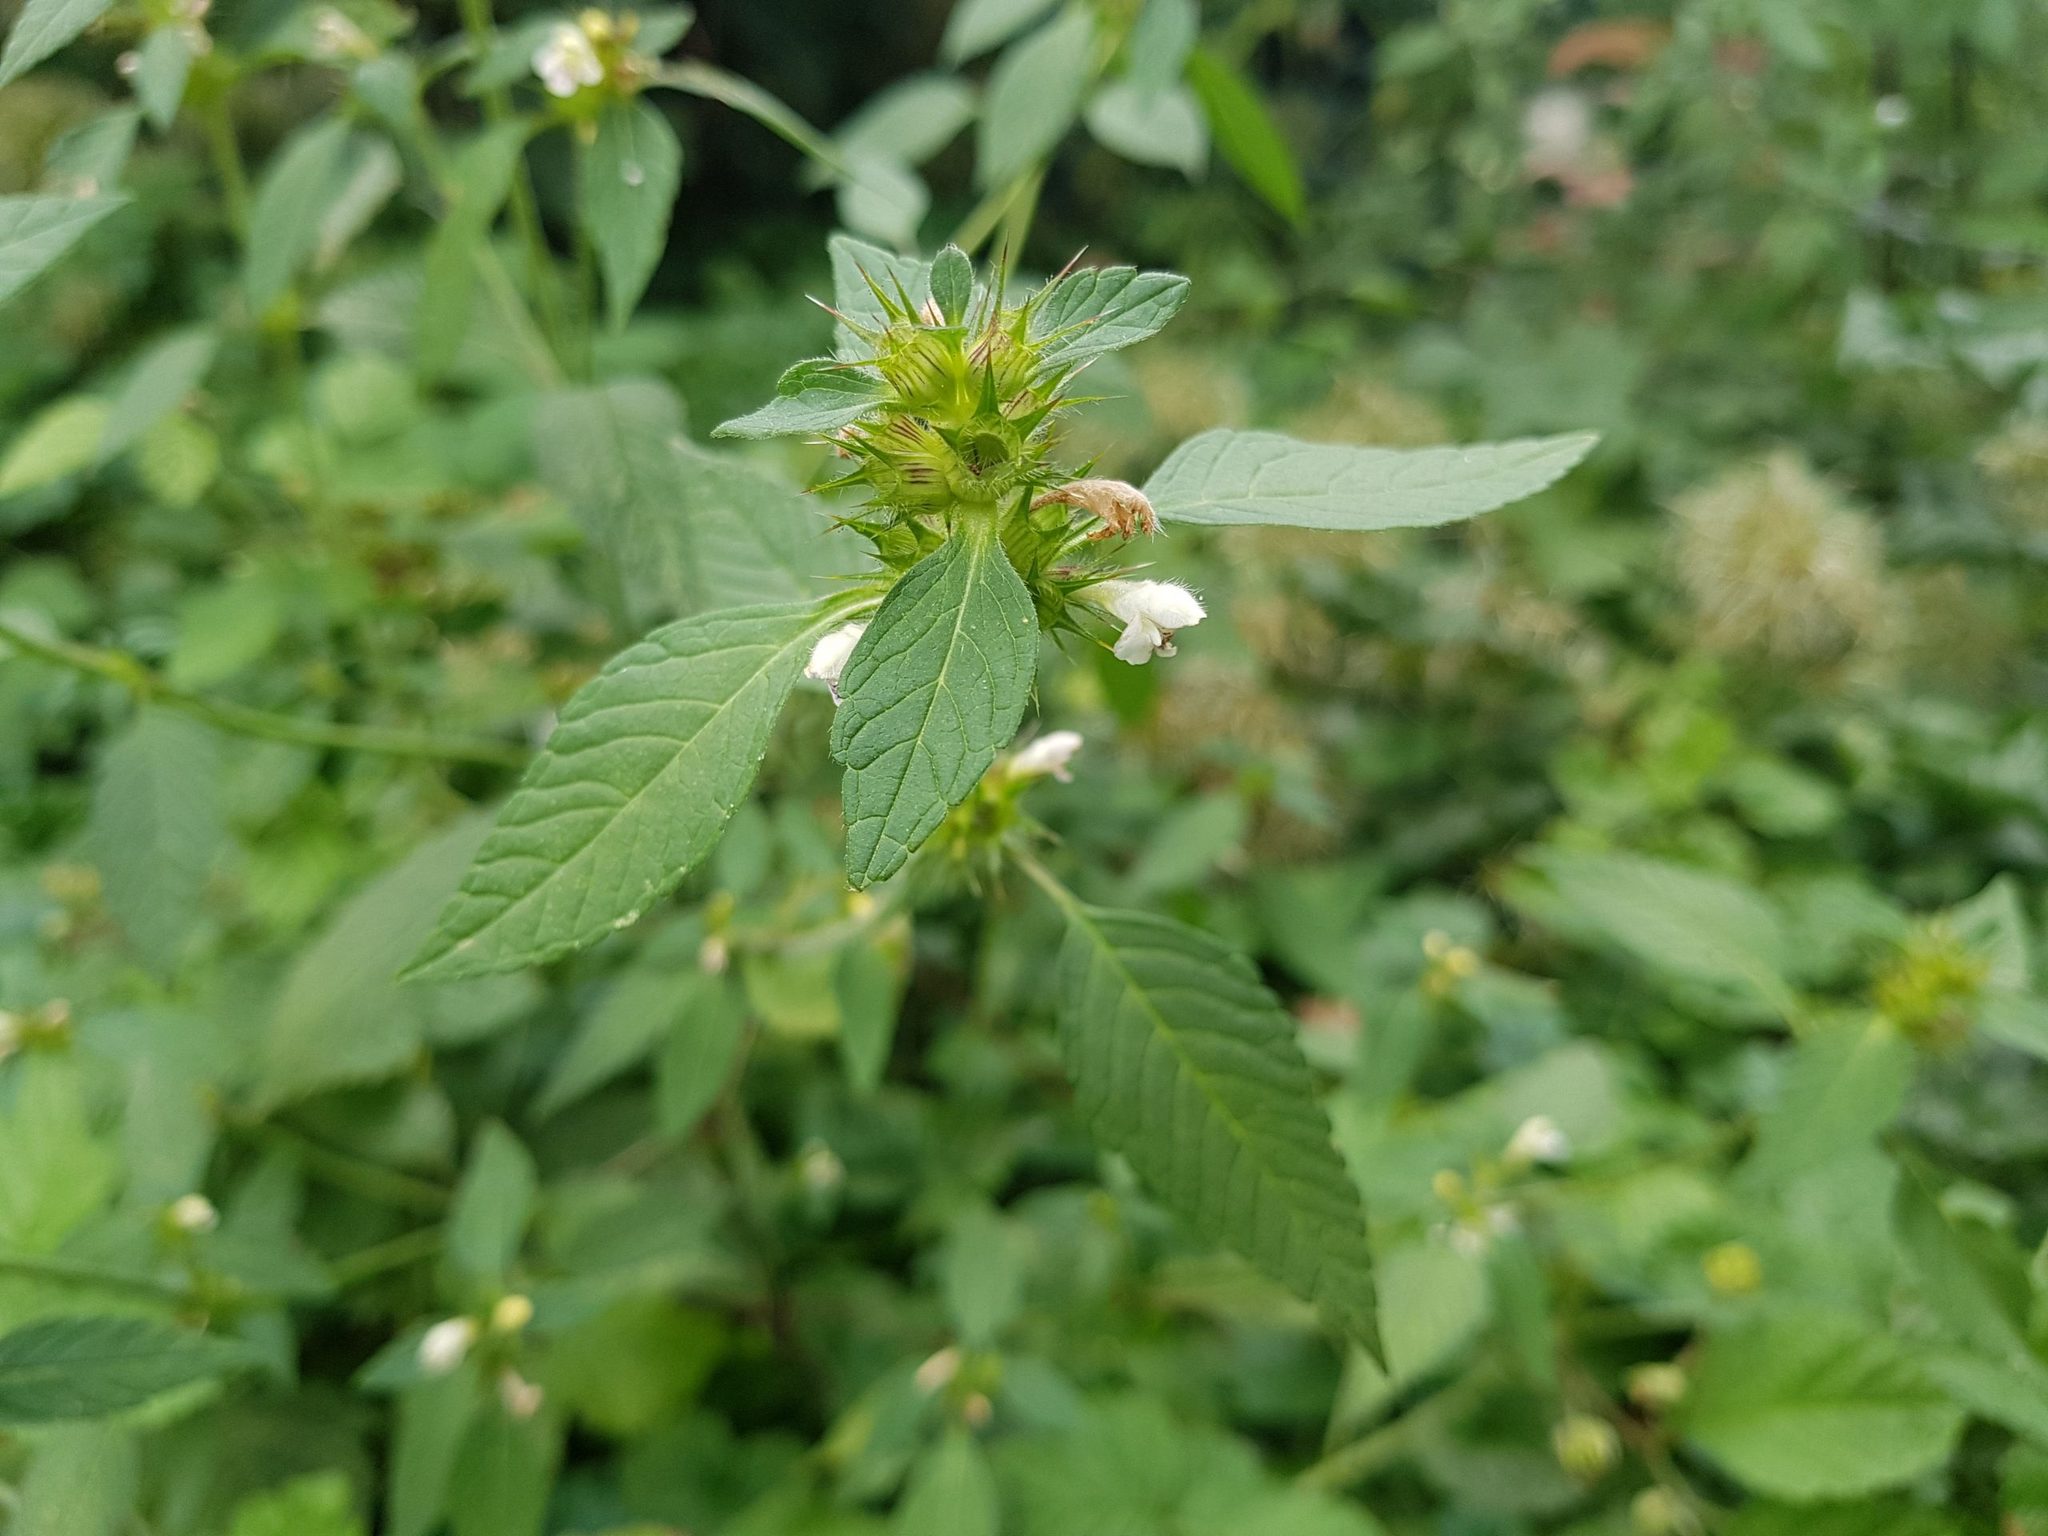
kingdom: Plantae
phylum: Tracheophyta
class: Magnoliopsida
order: Lamiales
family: Lamiaceae
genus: Galeopsis
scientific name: Galeopsis tetrahit
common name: Common hemp-nettle
